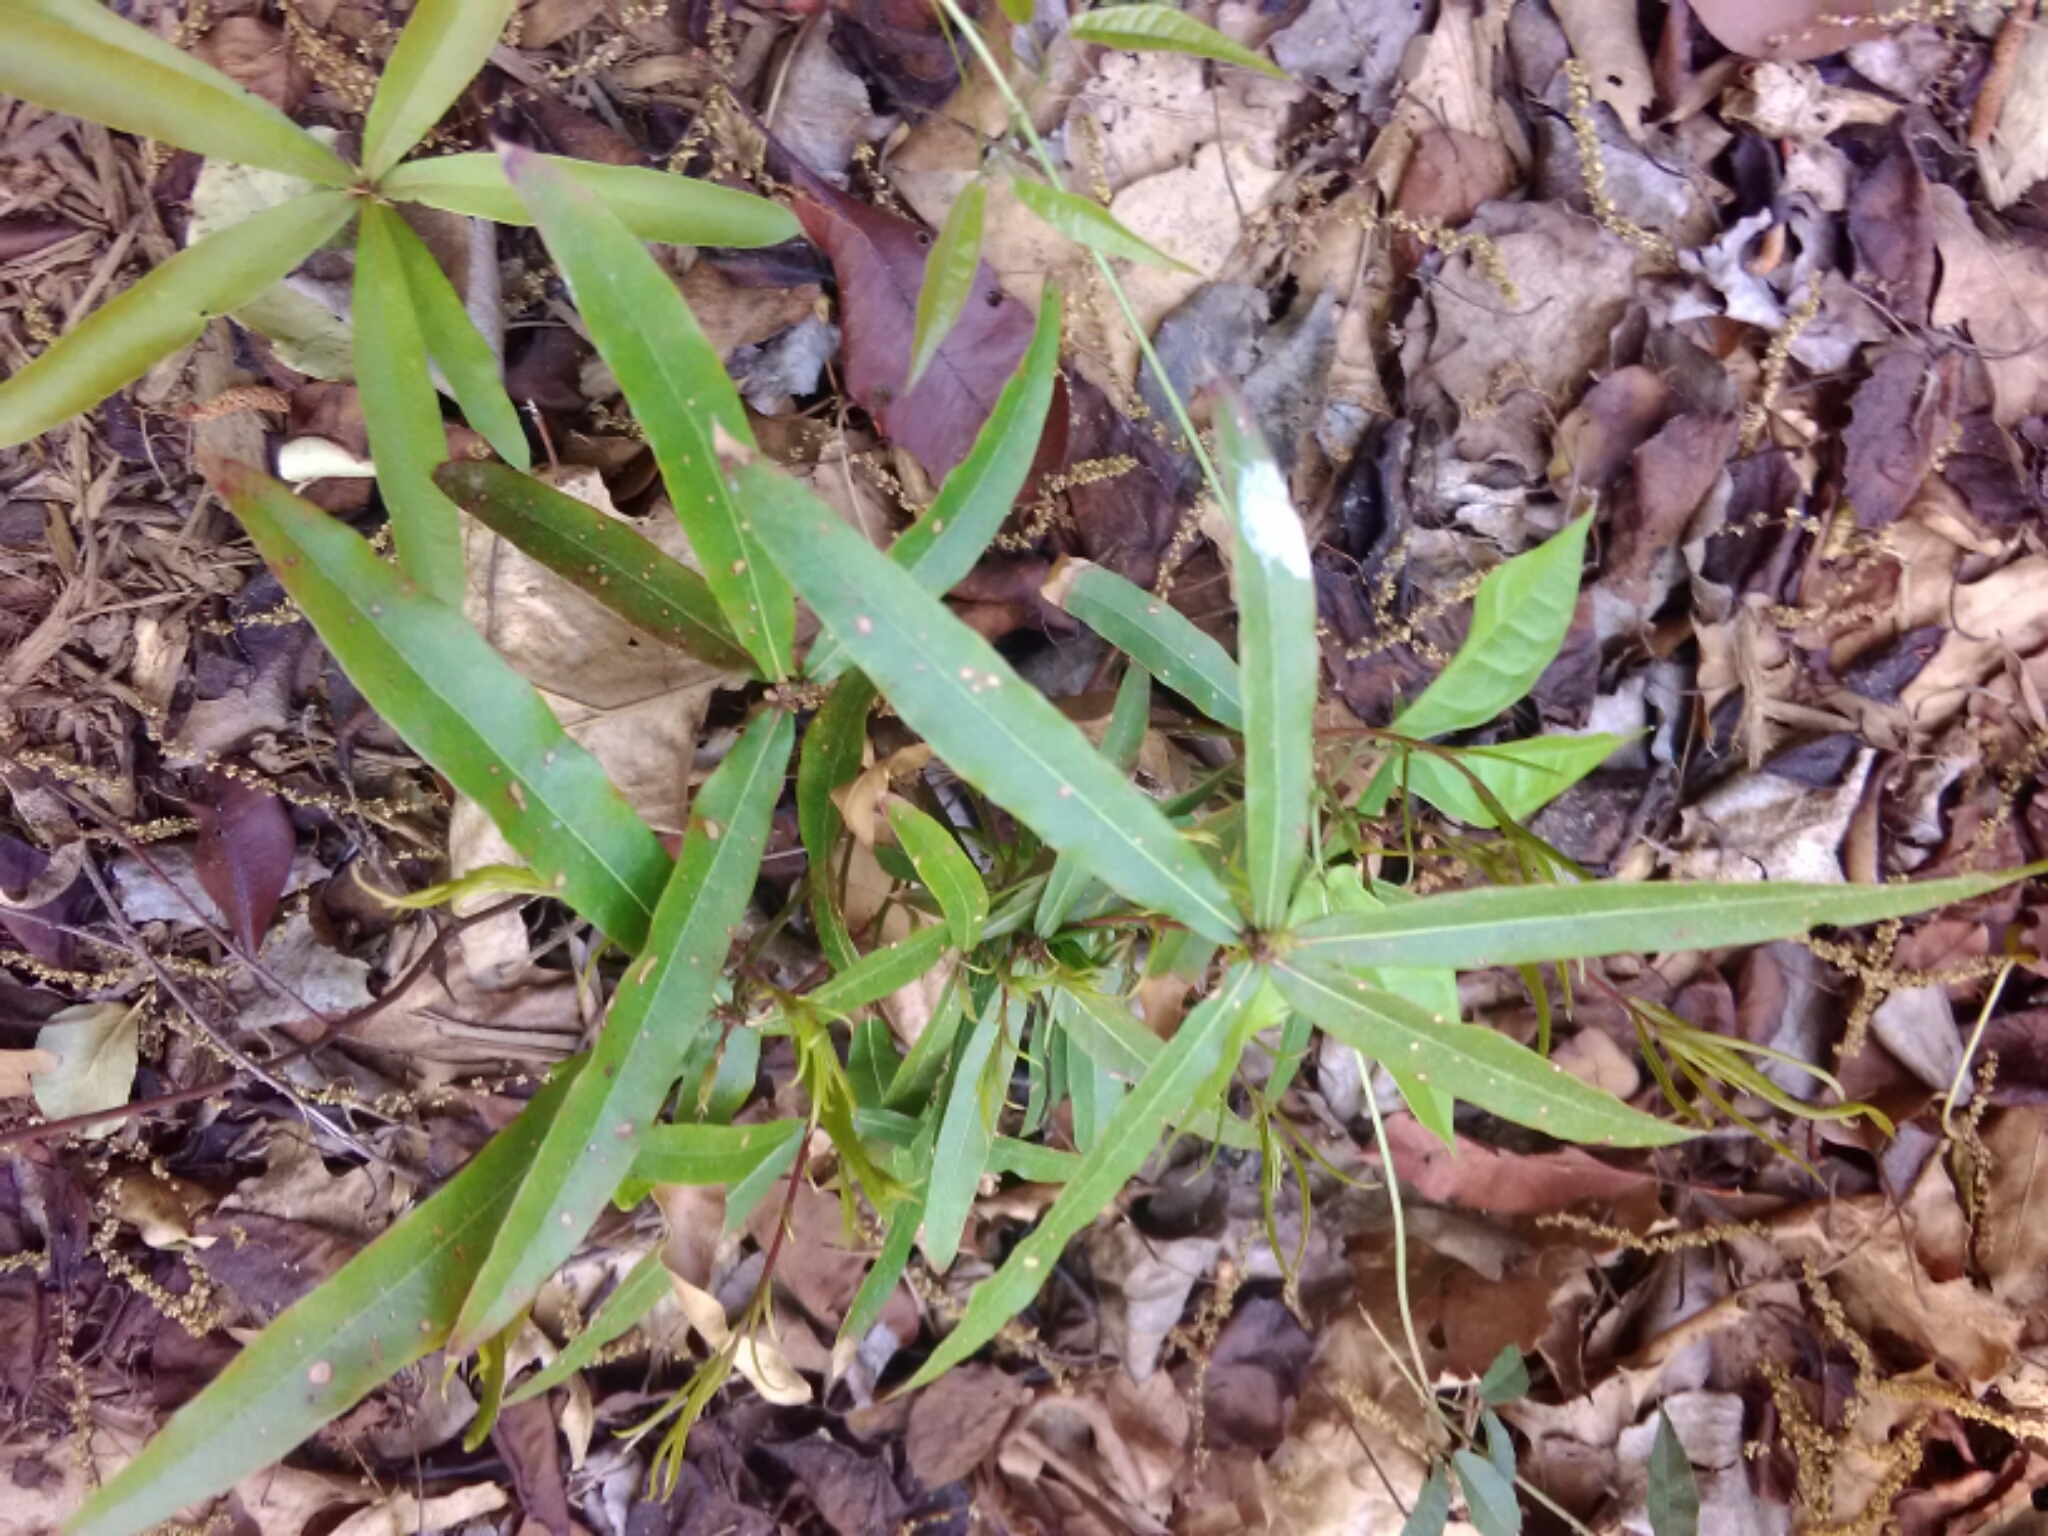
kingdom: Plantae
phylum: Tracheophyta
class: Magnoliopsida
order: Fagales
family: Fagaceae
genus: Quercus
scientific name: Quercus phellos
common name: Willow oak
